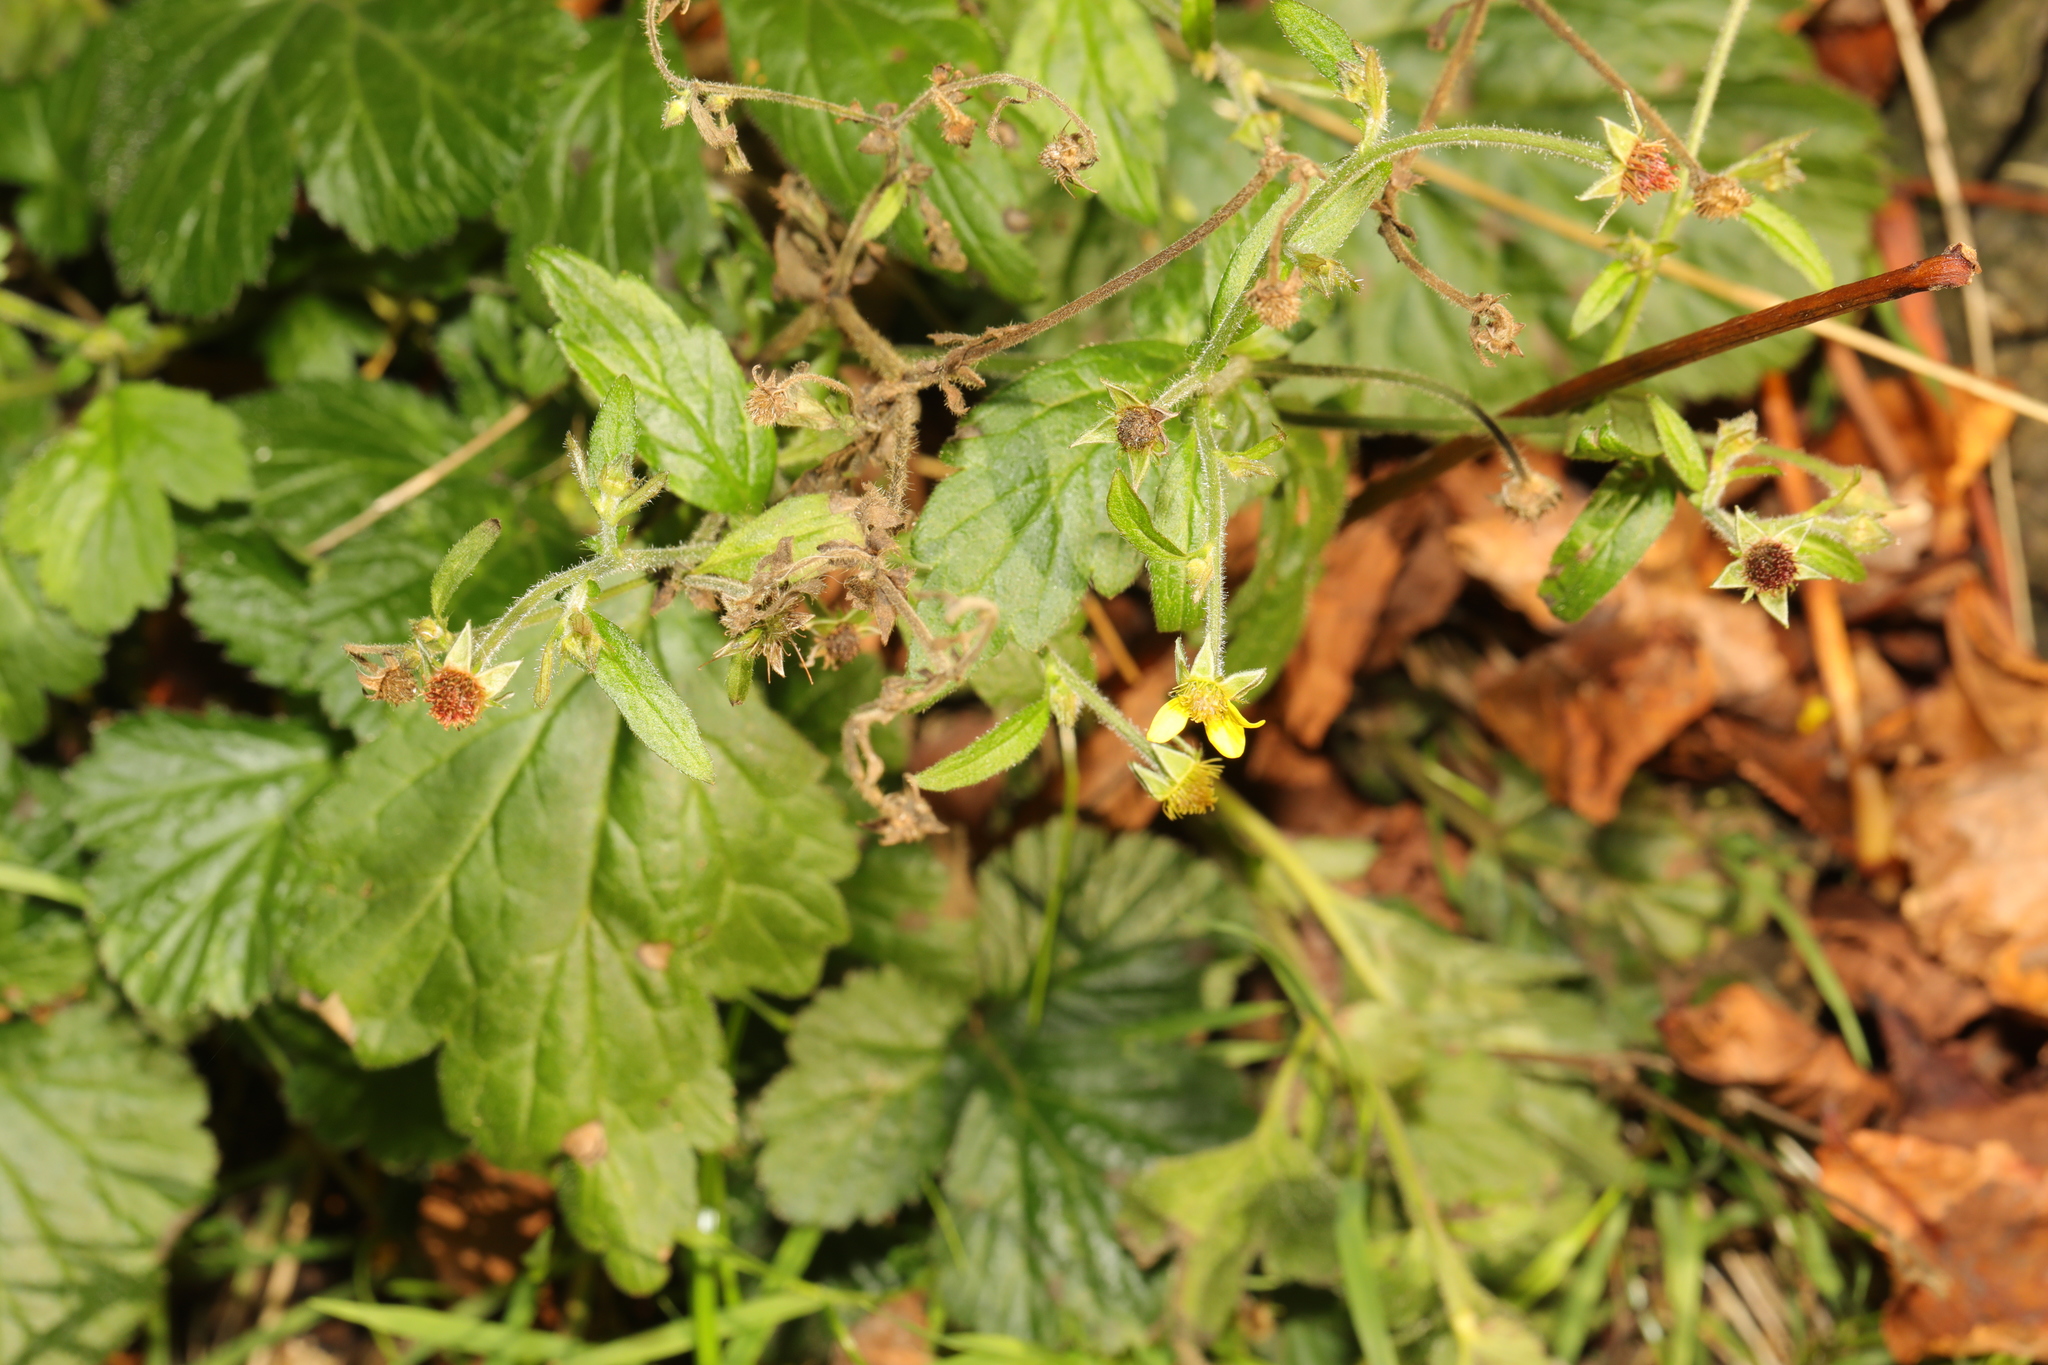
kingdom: Plantae
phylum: Tracheophyta
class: Magnoliopsida
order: Rosales
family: Rosaceae
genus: Geum
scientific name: Geum urbanum
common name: Wood avens
